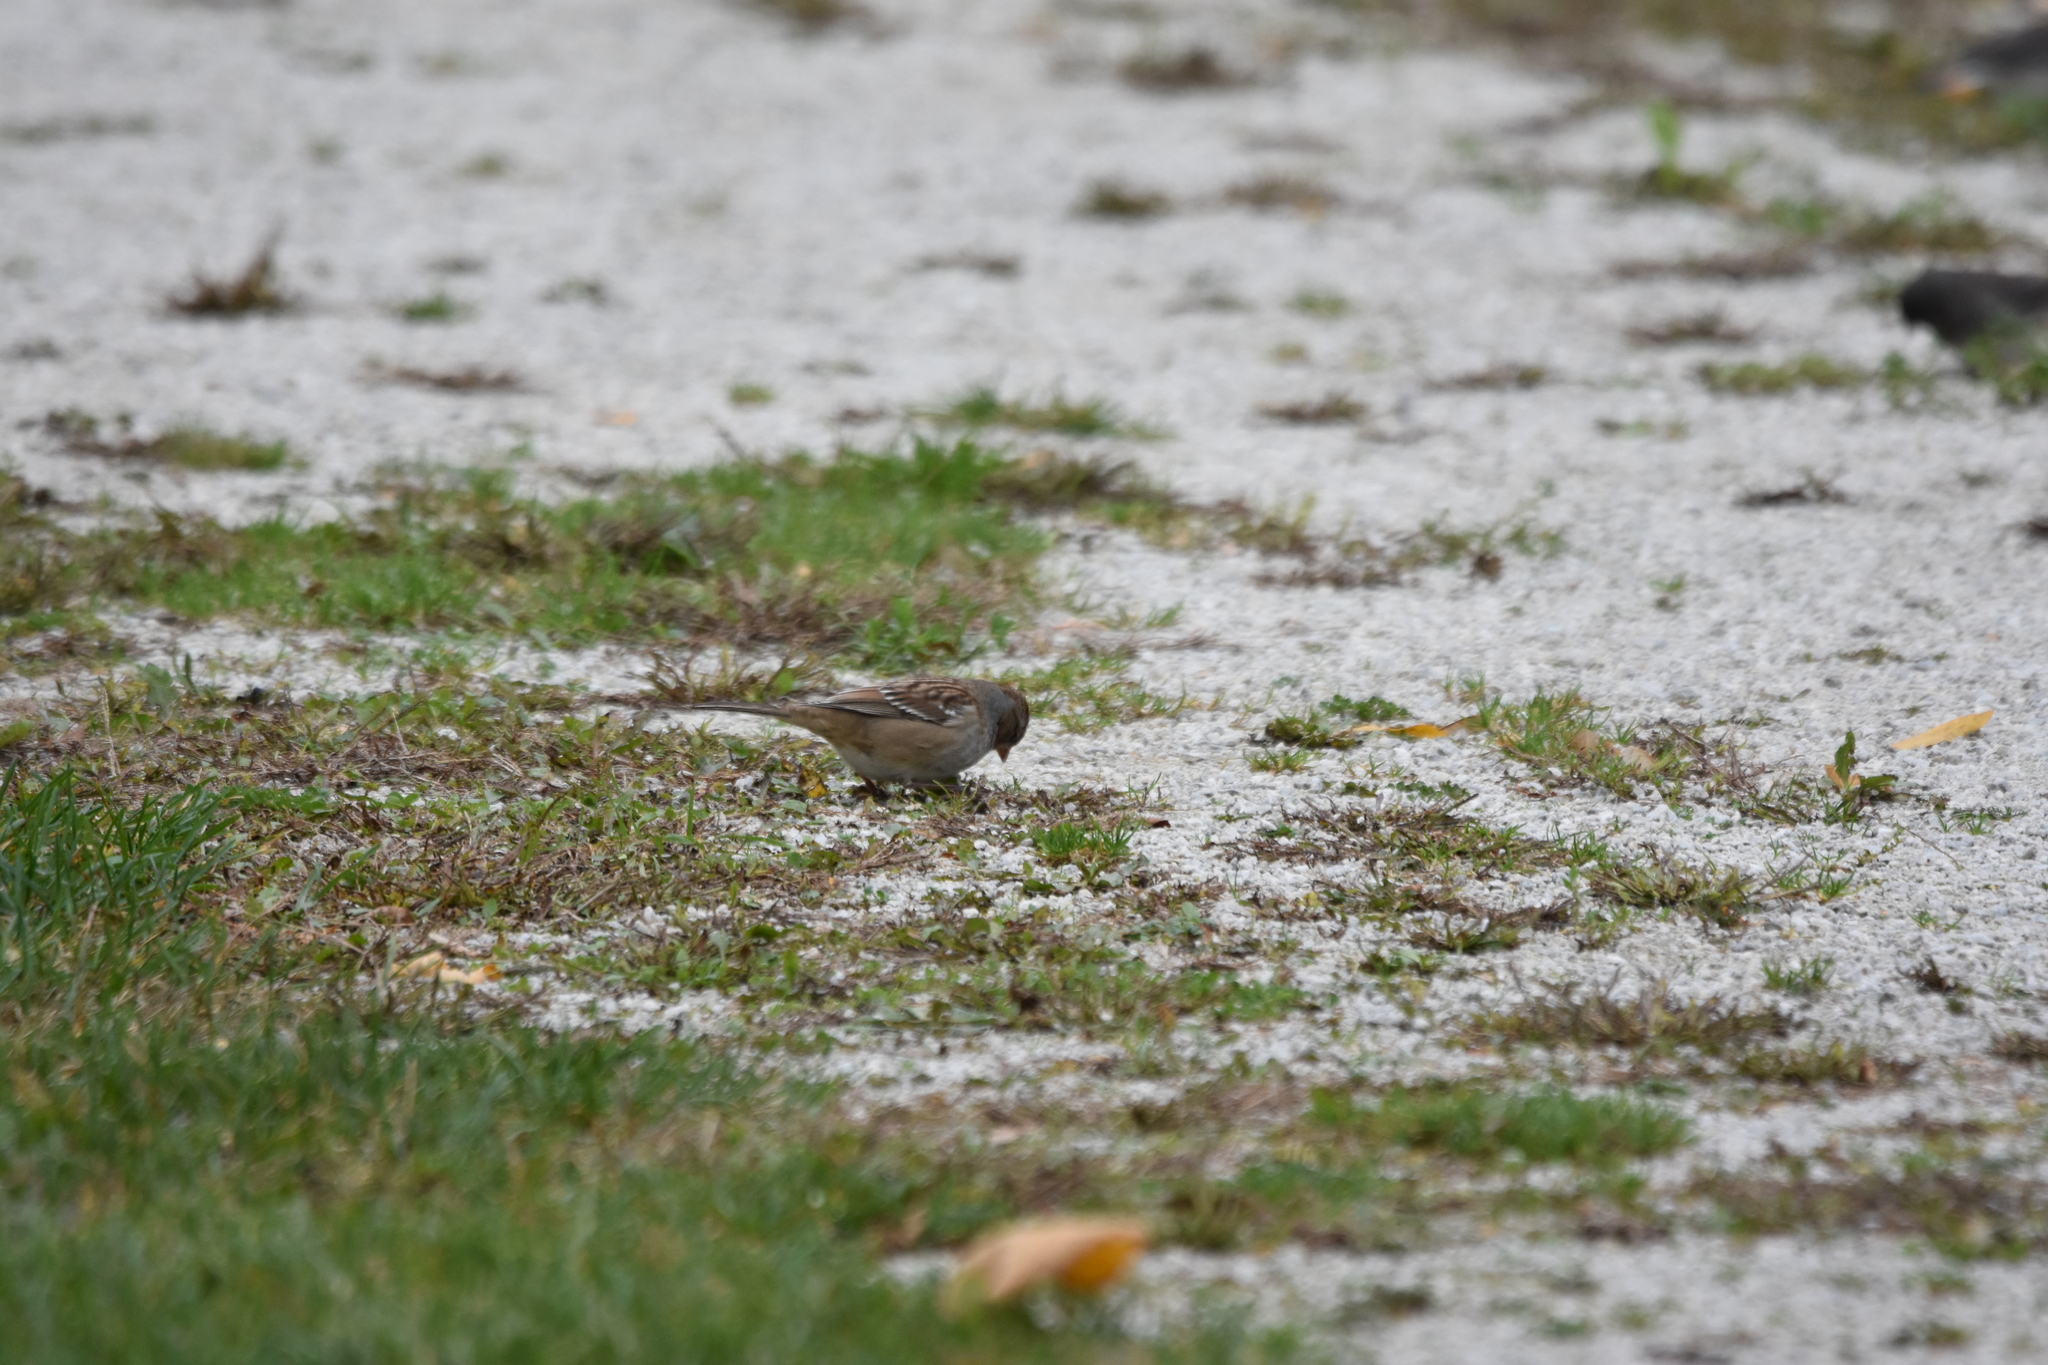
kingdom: Animalia
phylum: Chordata
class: Aves
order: Passeriformes
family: Passerellidae
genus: Zonotrichia
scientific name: Zonotrichia leucophrys
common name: White-crowned sparrow
